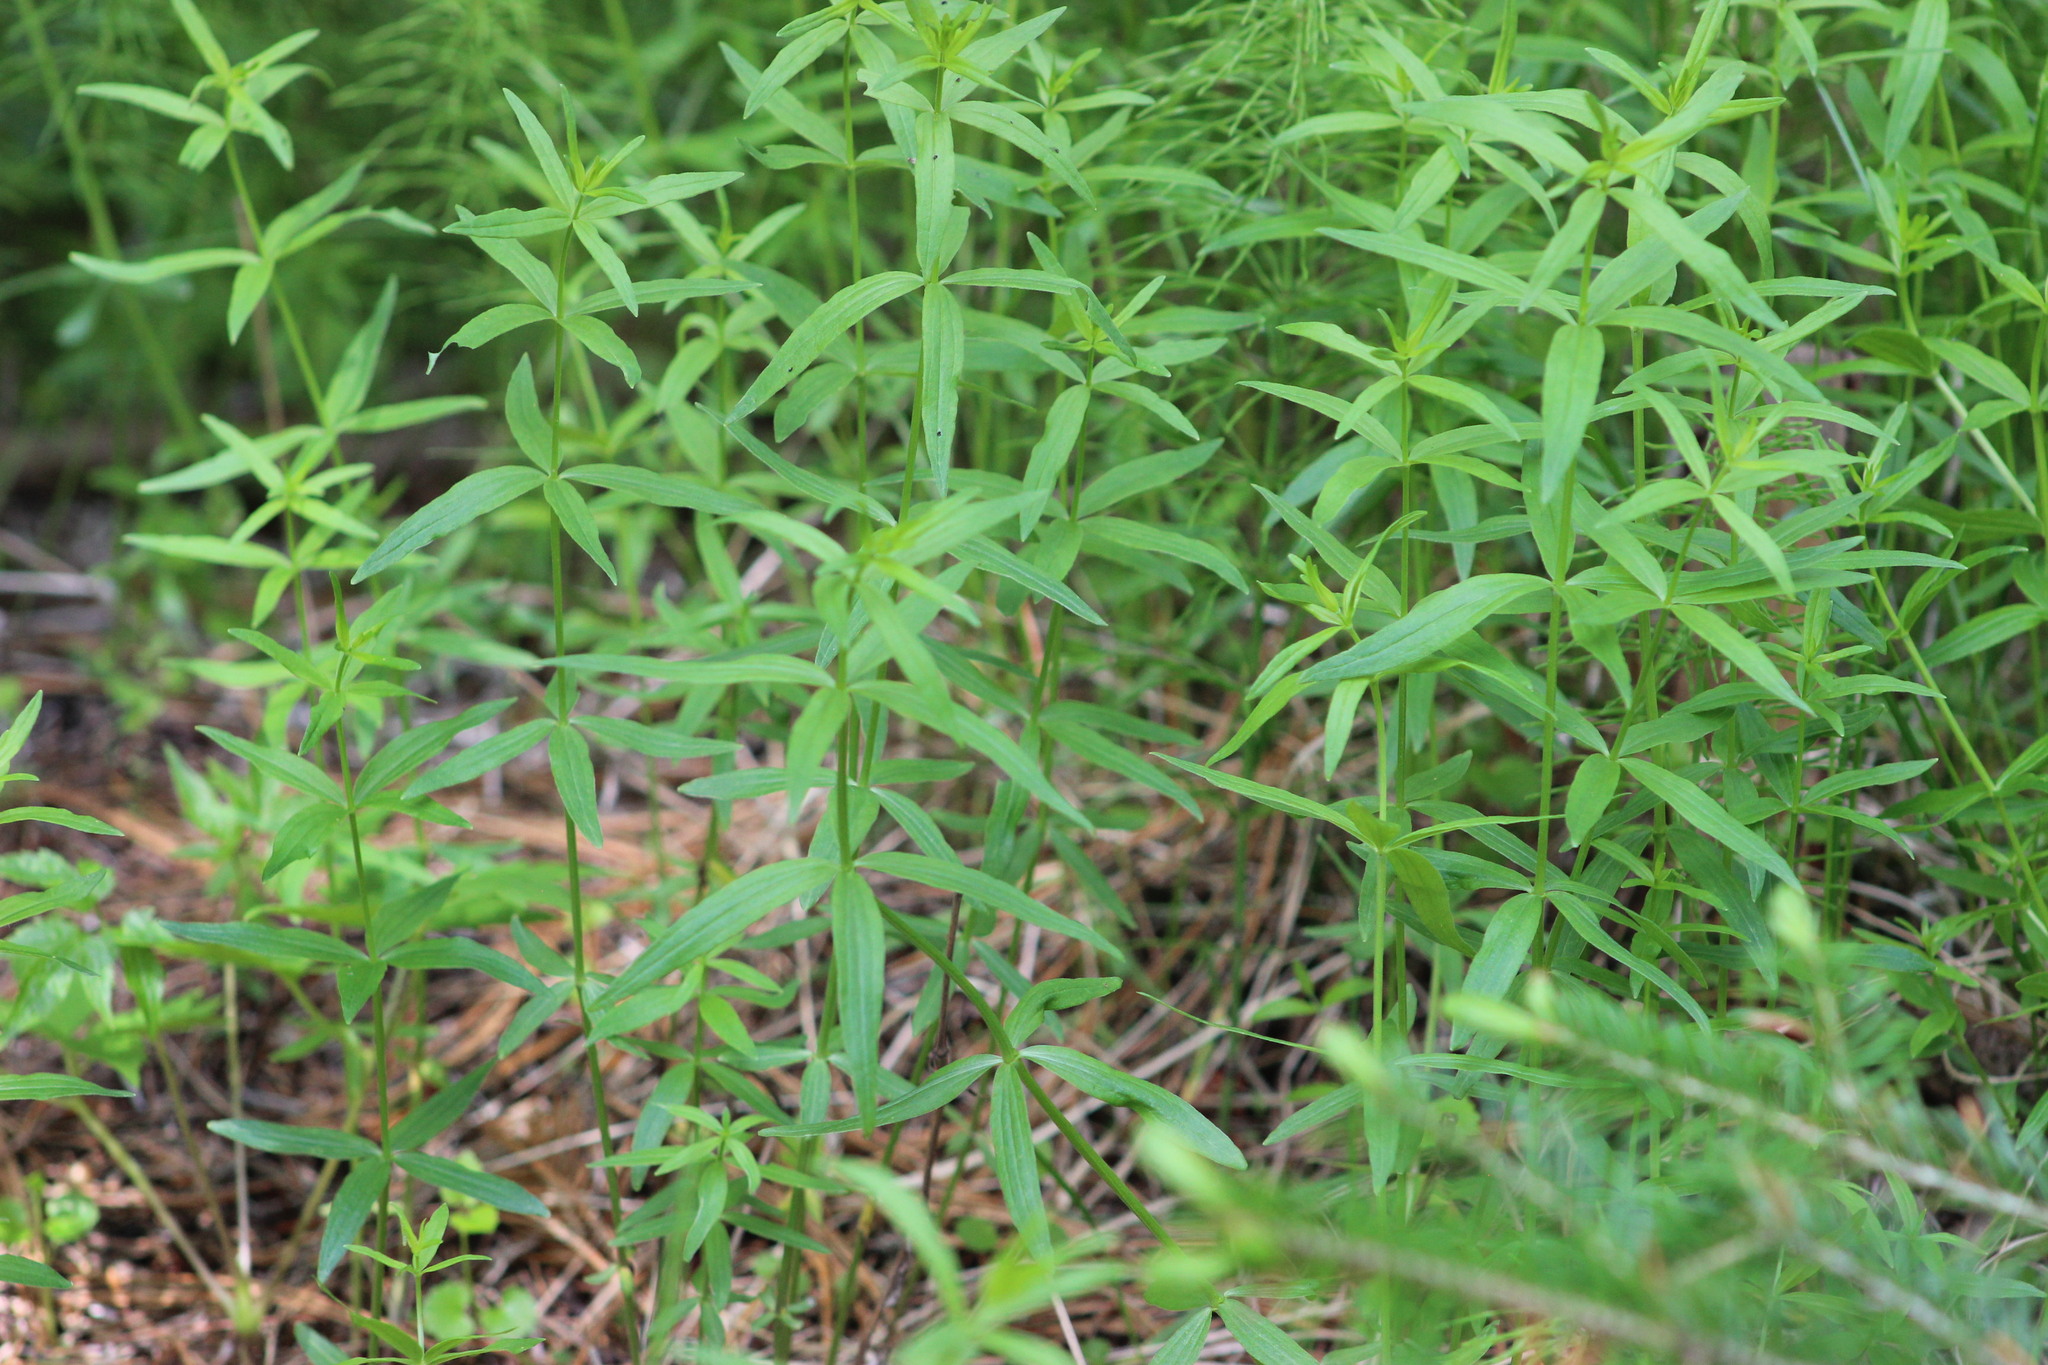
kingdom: Plantae
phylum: Tracheophyta
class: Magnoliopsida
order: Gentianales
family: Rubiaceae
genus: Galium
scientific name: Galium boreale
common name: Northern bedstraw
